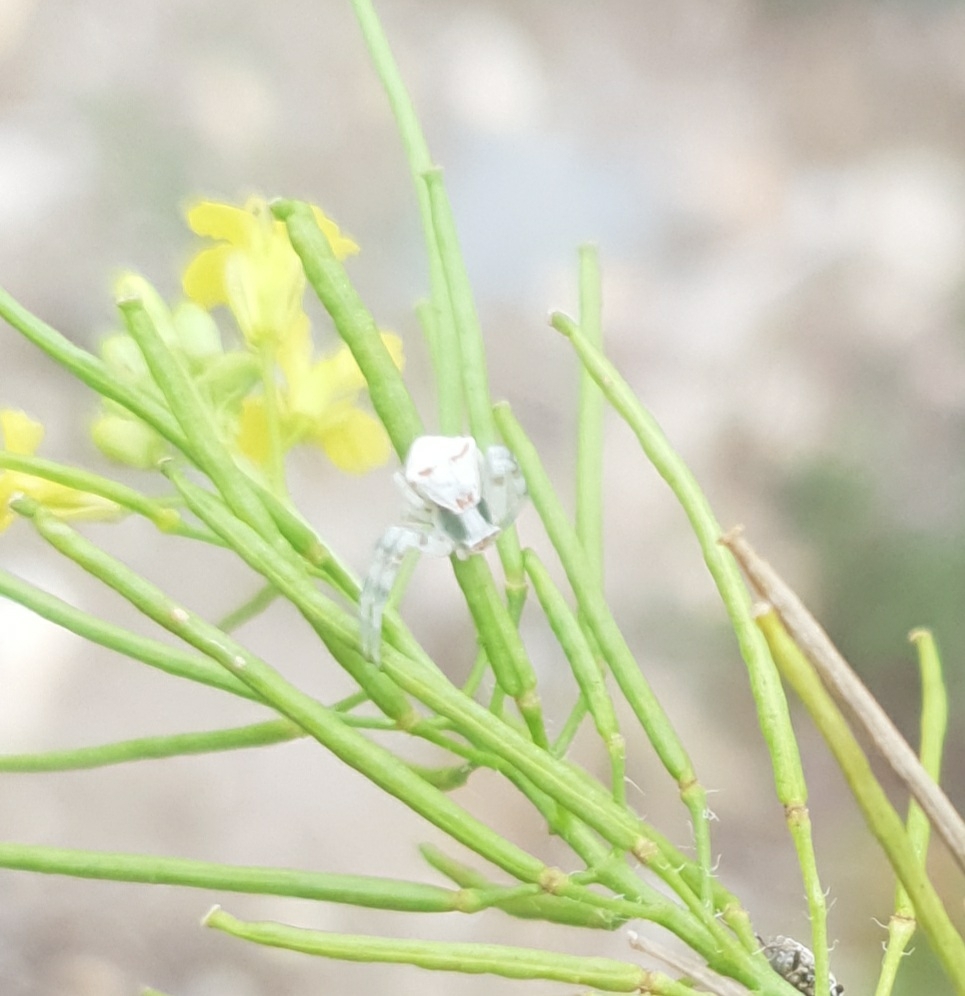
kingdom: Animalia
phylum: Arthropoda
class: Arachnida
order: Araneae
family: Thomisidae
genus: Thomisus
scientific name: Thomisus onustus
